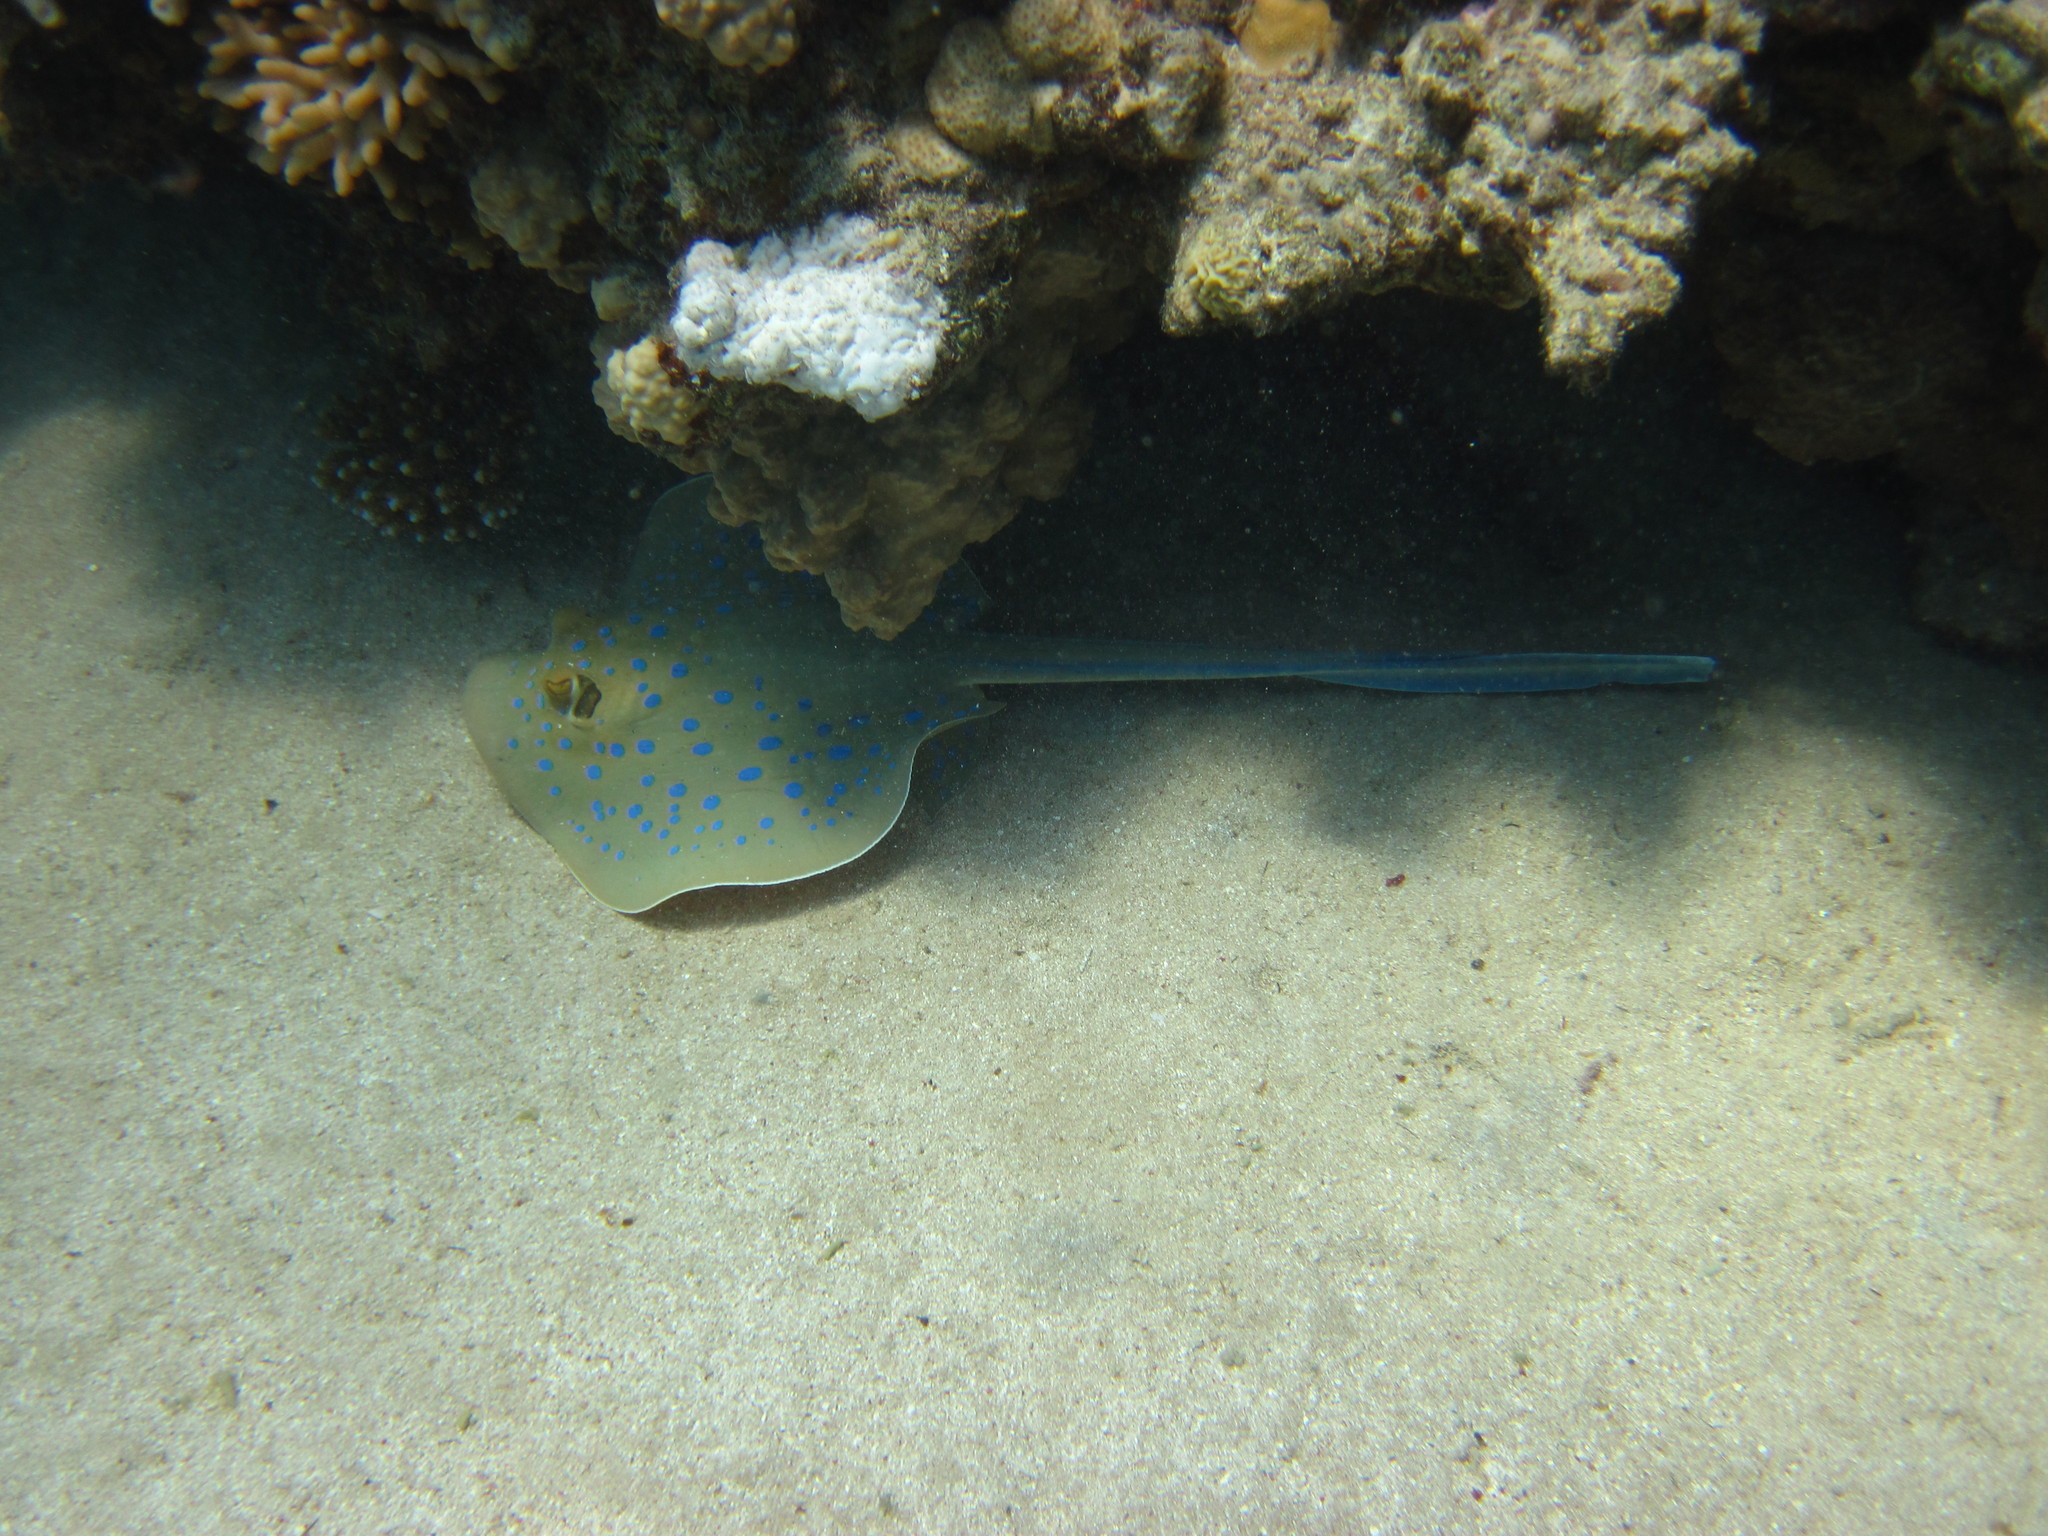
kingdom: Animalia
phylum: Chordata
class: Elasmobranchii
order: Myliobatiformes
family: Dasyatidae
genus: Taeniura
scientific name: Taeniura lymma
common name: Bluespotted ribbontail ray
